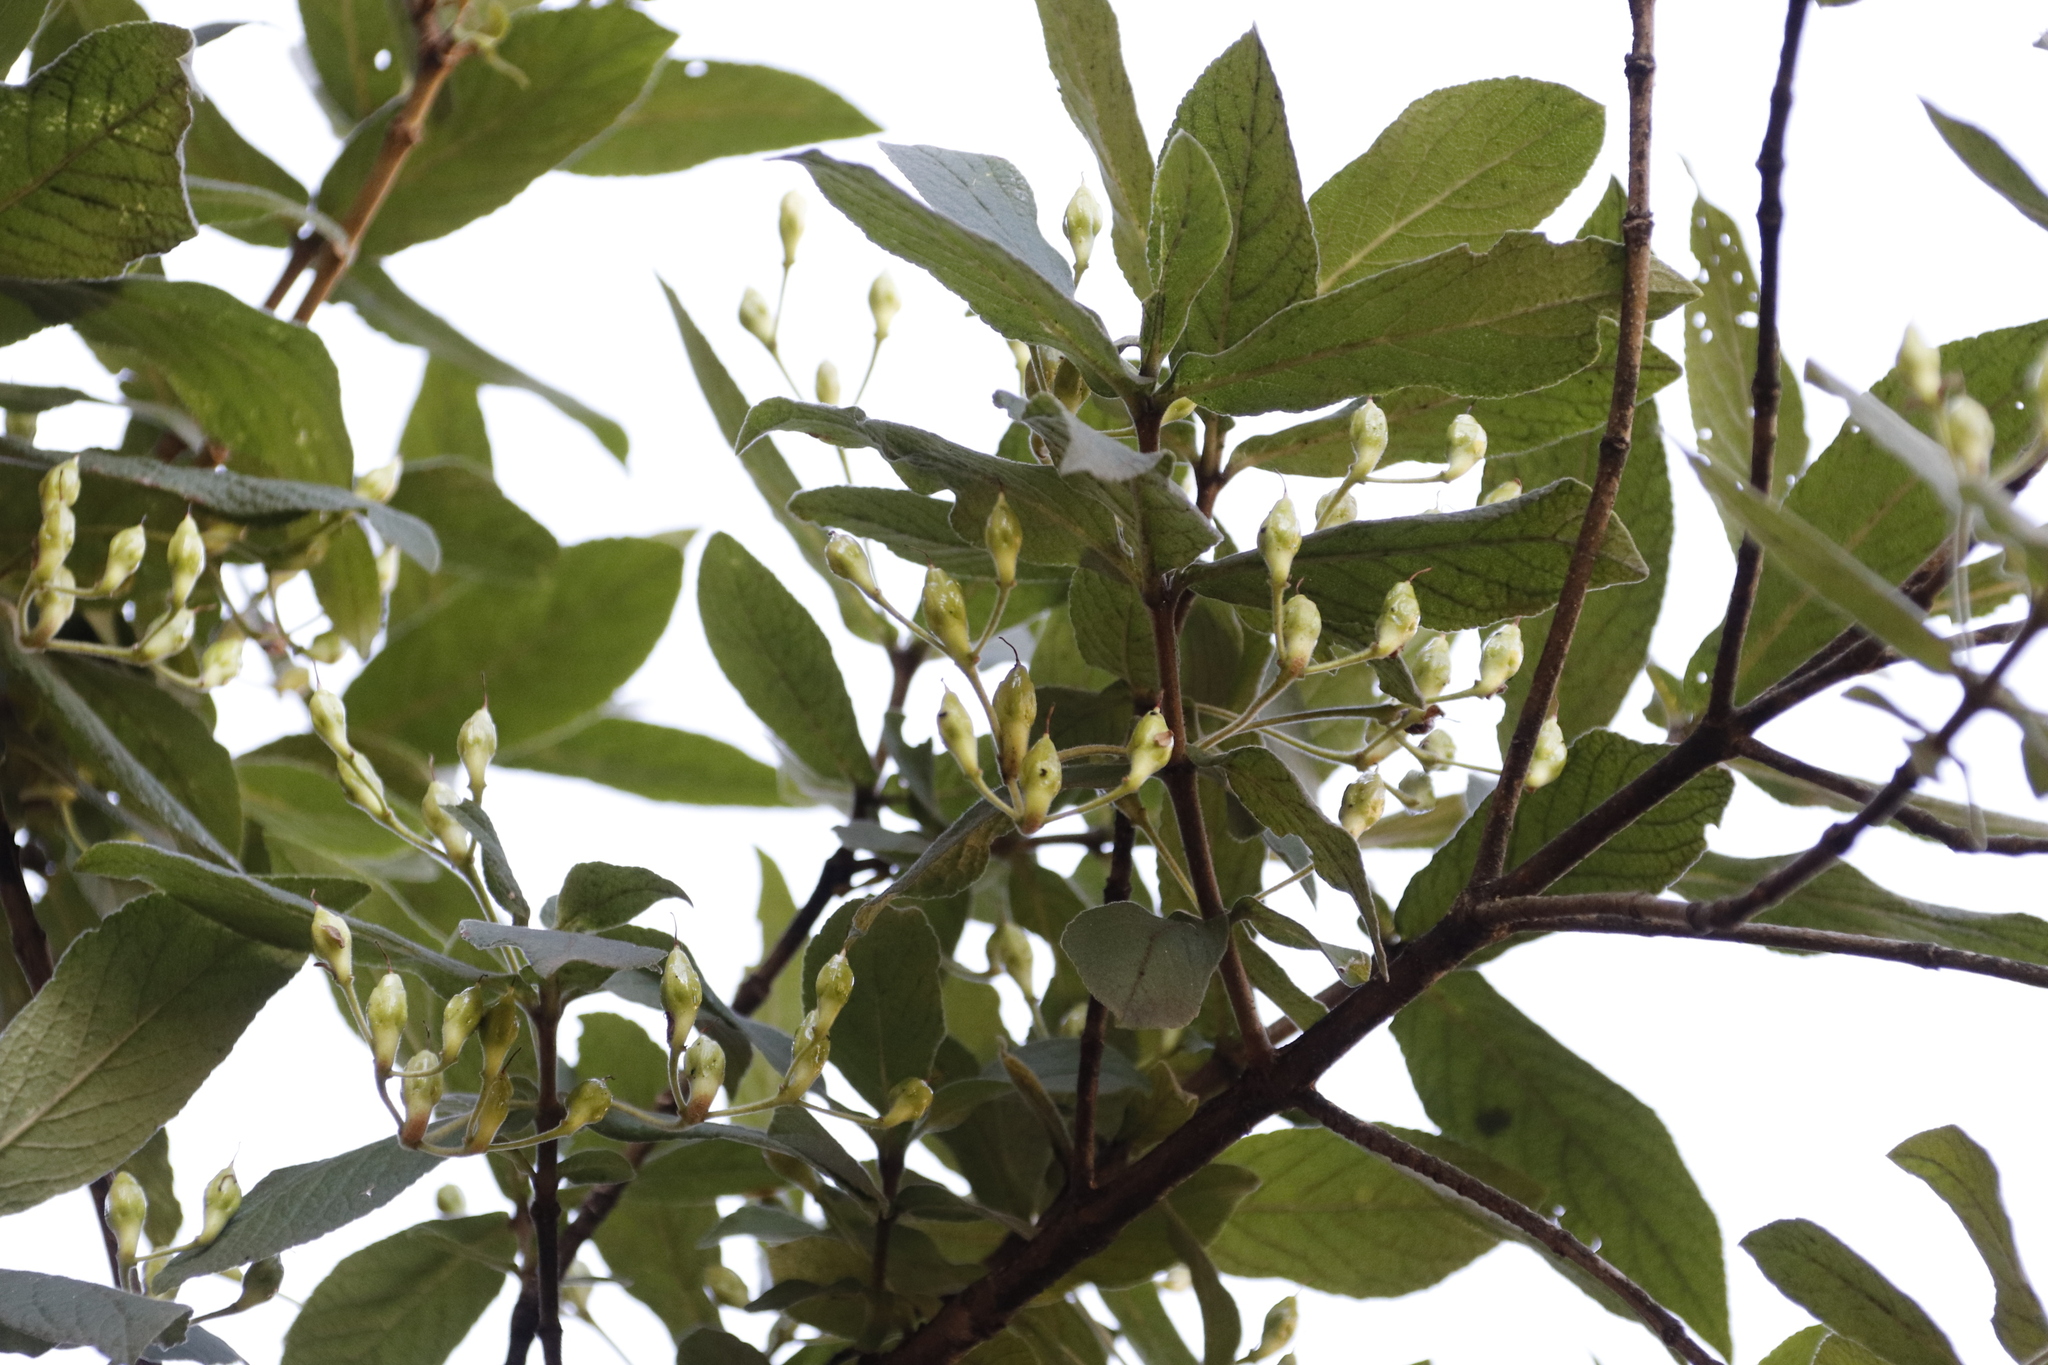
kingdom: Plantae
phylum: Tracheophyta
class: Magnoliopsida
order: Lamiales
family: Stilbaceae
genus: Bowkeria
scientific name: Bowkeria verticillata
